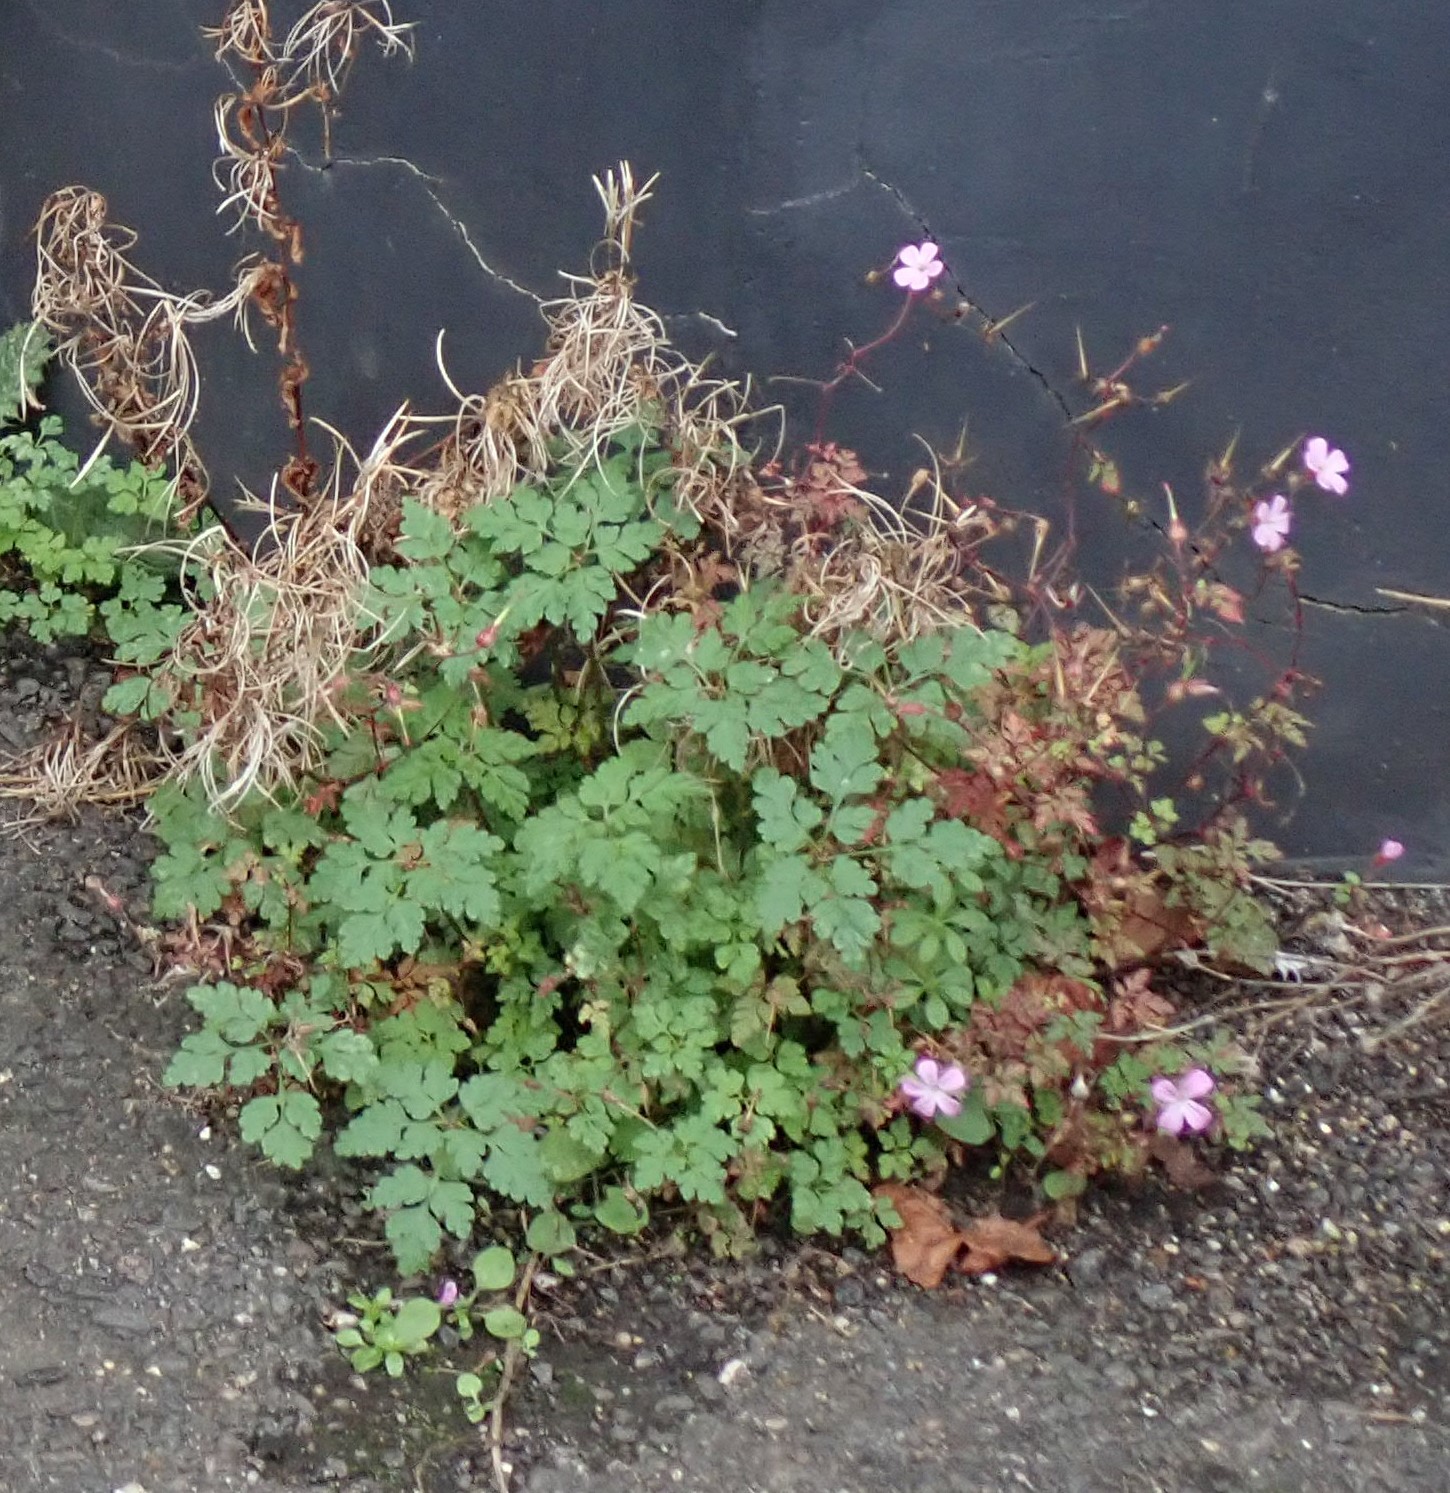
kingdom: Plantae
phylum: Tracheophyta
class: Magnoliopsida
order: Geraniales
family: Geraniaceae
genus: Geranium
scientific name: Geranium robertianum
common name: Herb-robert
